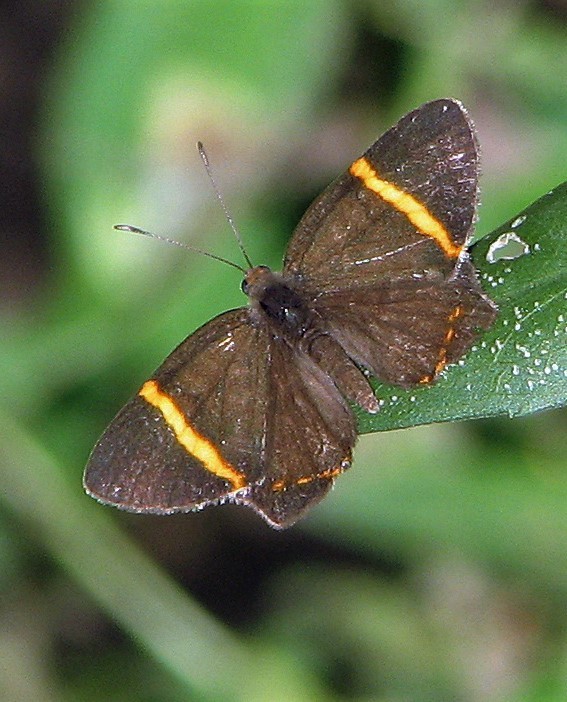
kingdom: Animalia
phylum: Arthropoda
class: Insecta
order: Lepidoptera
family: Riodinidae
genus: Riodina
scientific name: Riodina lysippoides
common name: Little dancer metalmark
